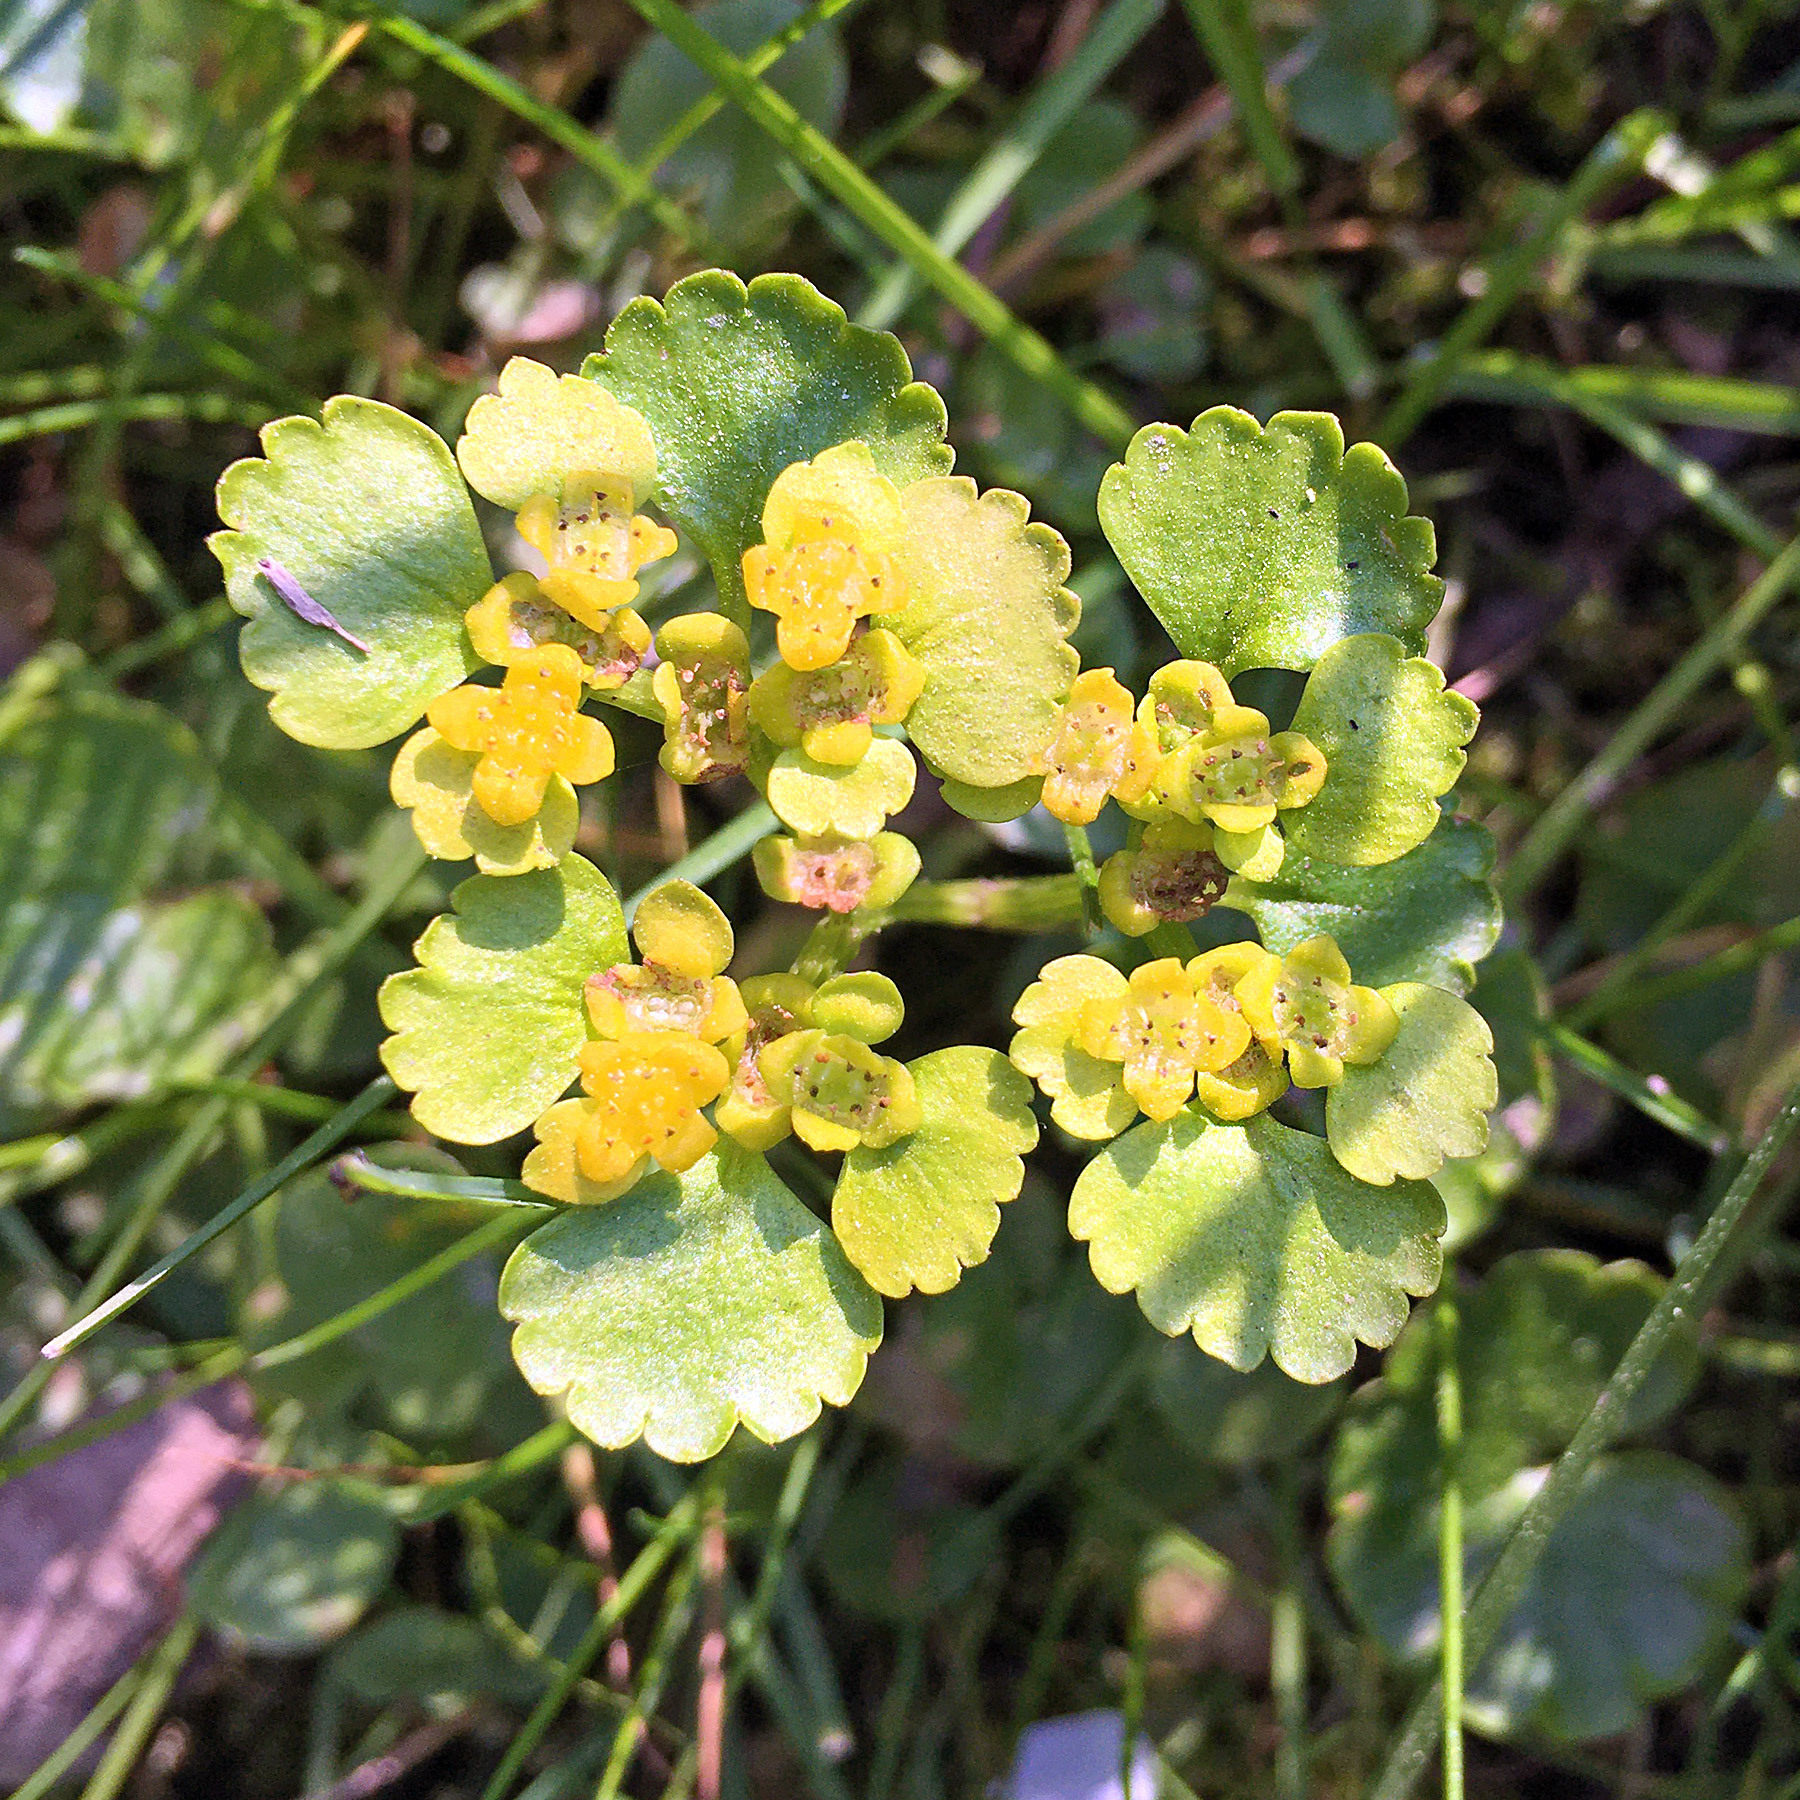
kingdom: Plantae
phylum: Tracheophyta
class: Magnoliopsida
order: Saxifragales
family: Saxifragaceae
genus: Chrysosplenium
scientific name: Chrysosplenium alternifolium
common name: Alternate-leaved golden-saxifrage
